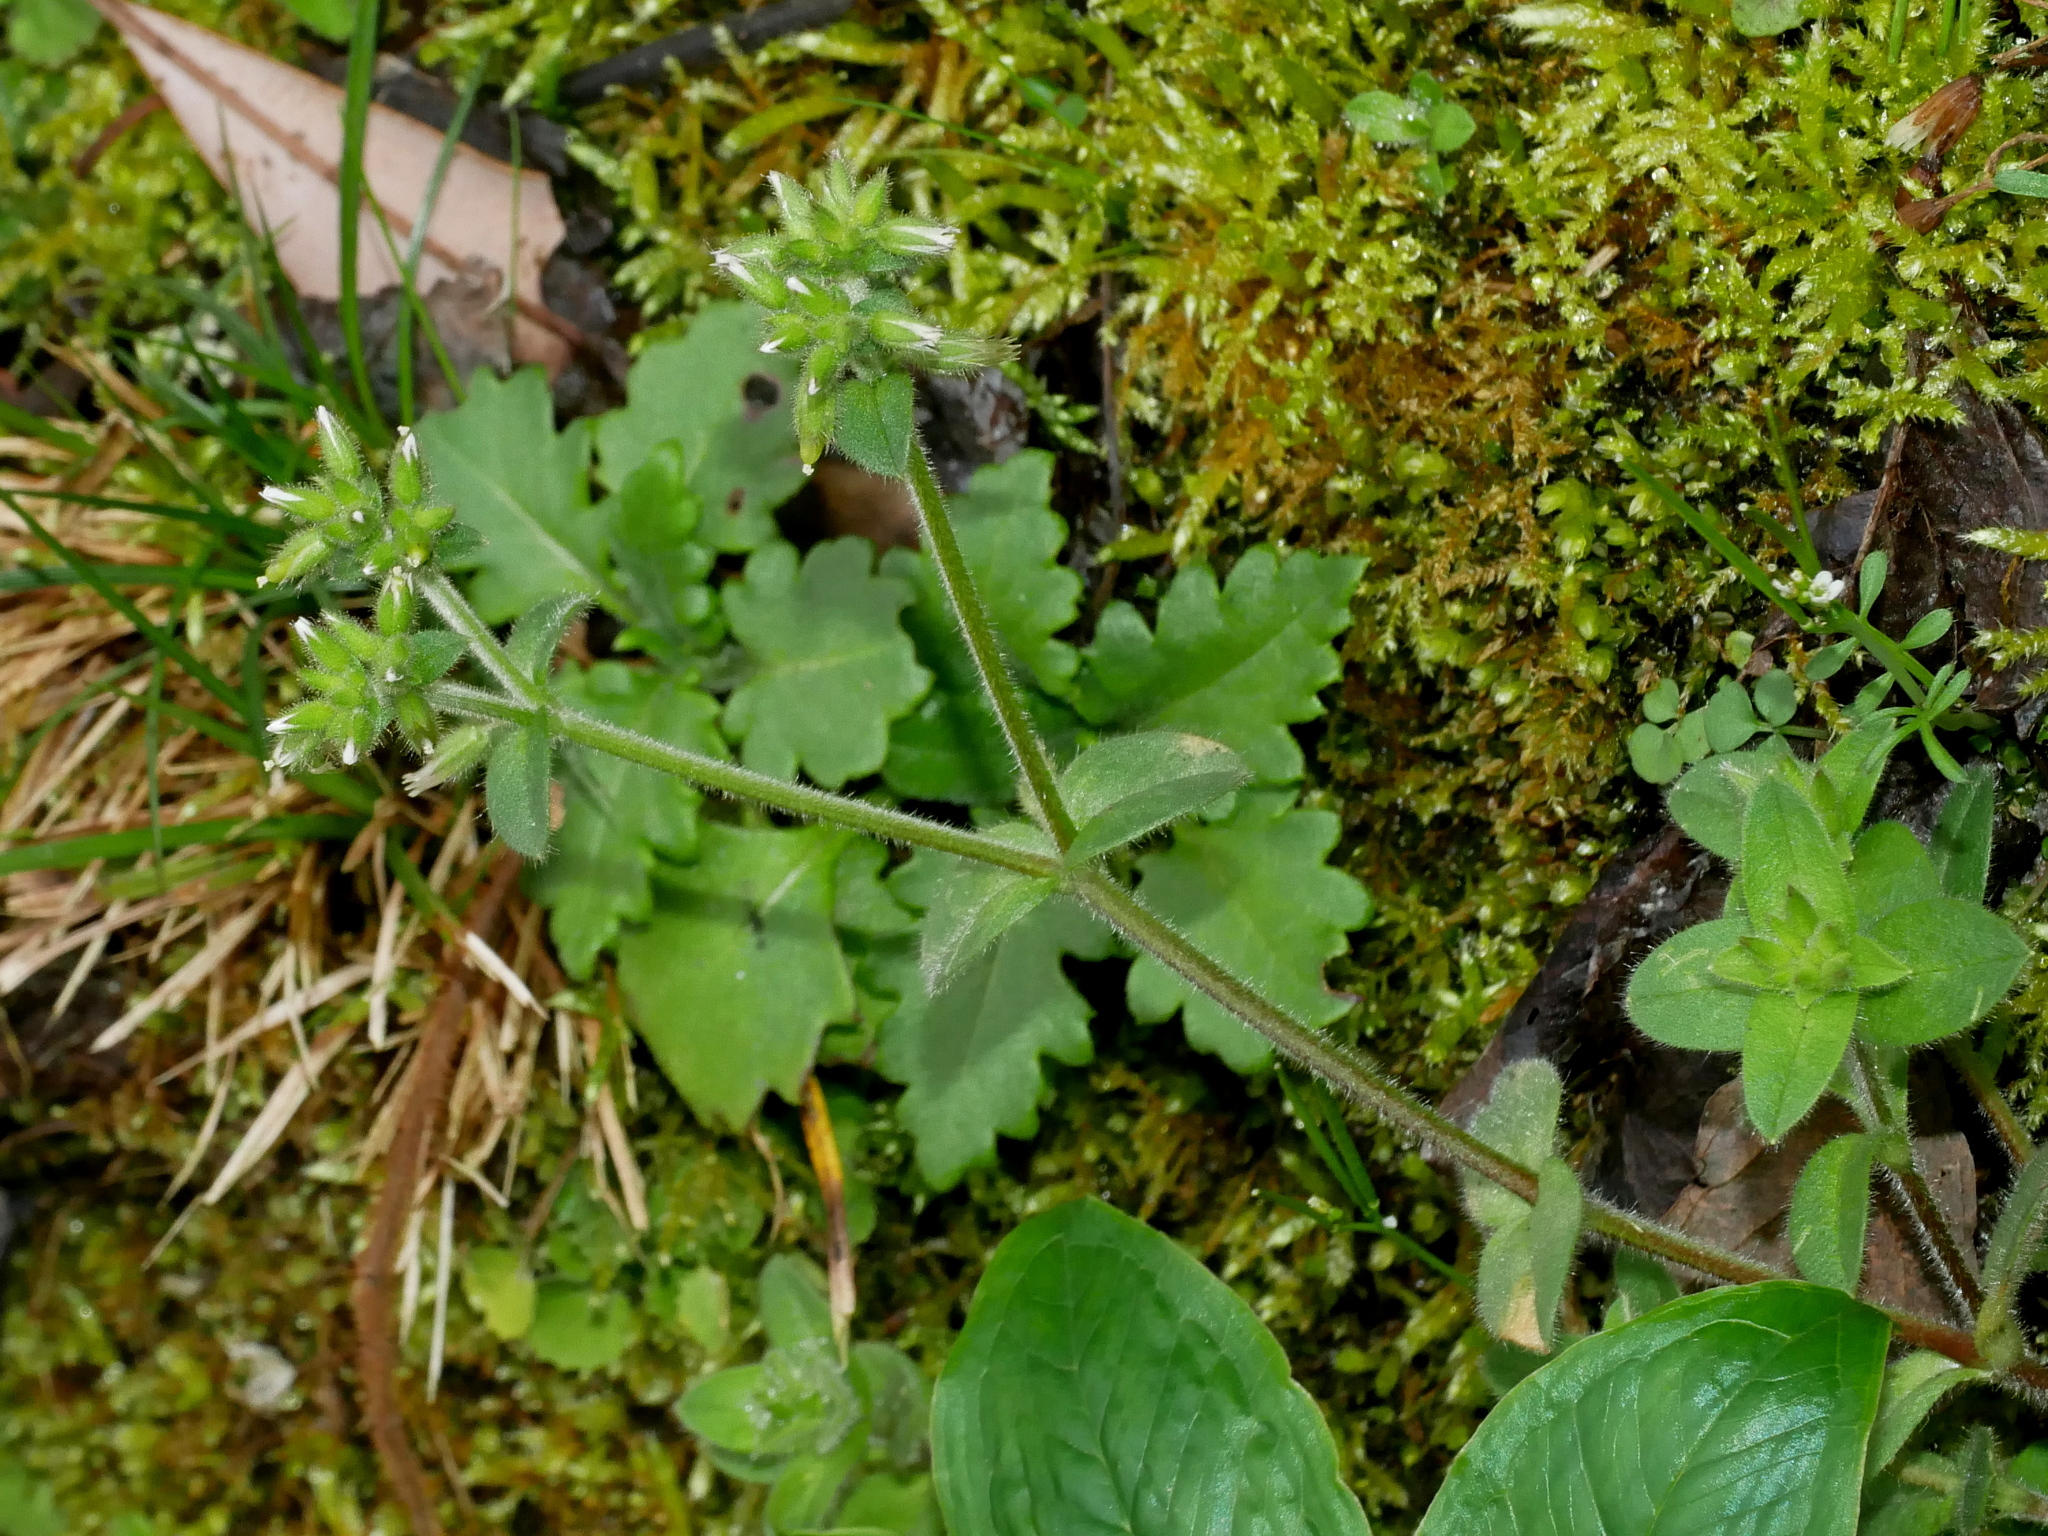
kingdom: Plantae
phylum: Tracheophyta
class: Magnoliopsida
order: Caryophyllales
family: Caryophyllaceae
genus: Cerastium
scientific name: Cerastium glomeratum
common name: Sticky chickweed
